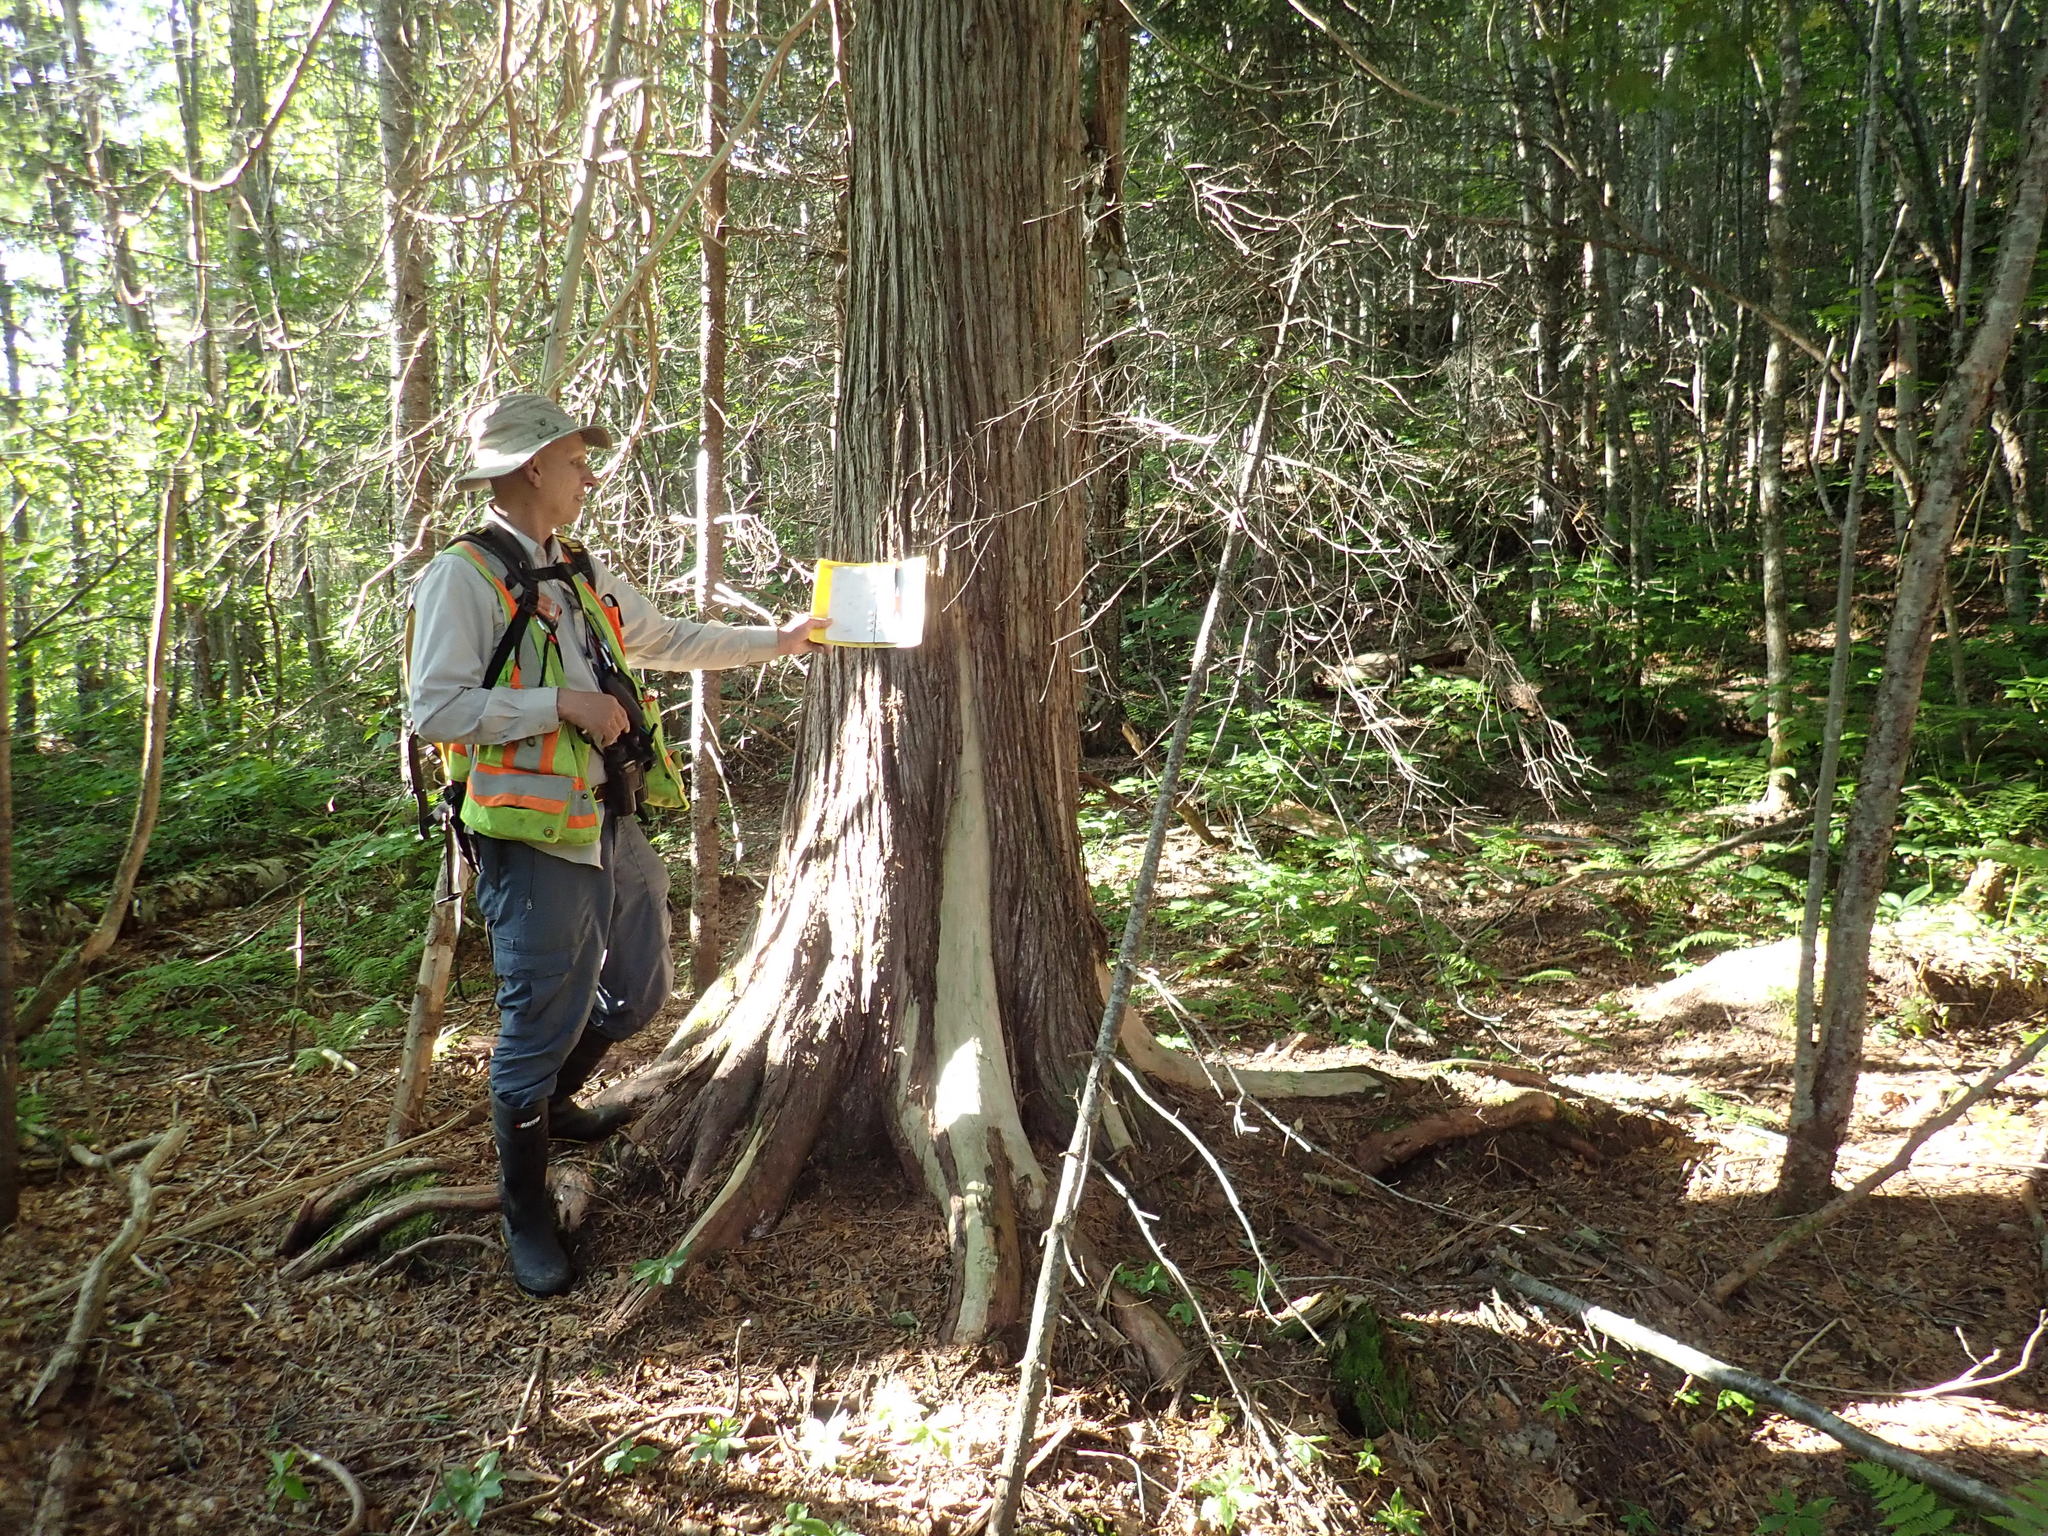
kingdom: Plantae
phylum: Tracheophyta
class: Pinopsida
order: Pinales
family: Cupressaceae
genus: Thuja
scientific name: Thuja occidentalis
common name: Northern white-cedar
